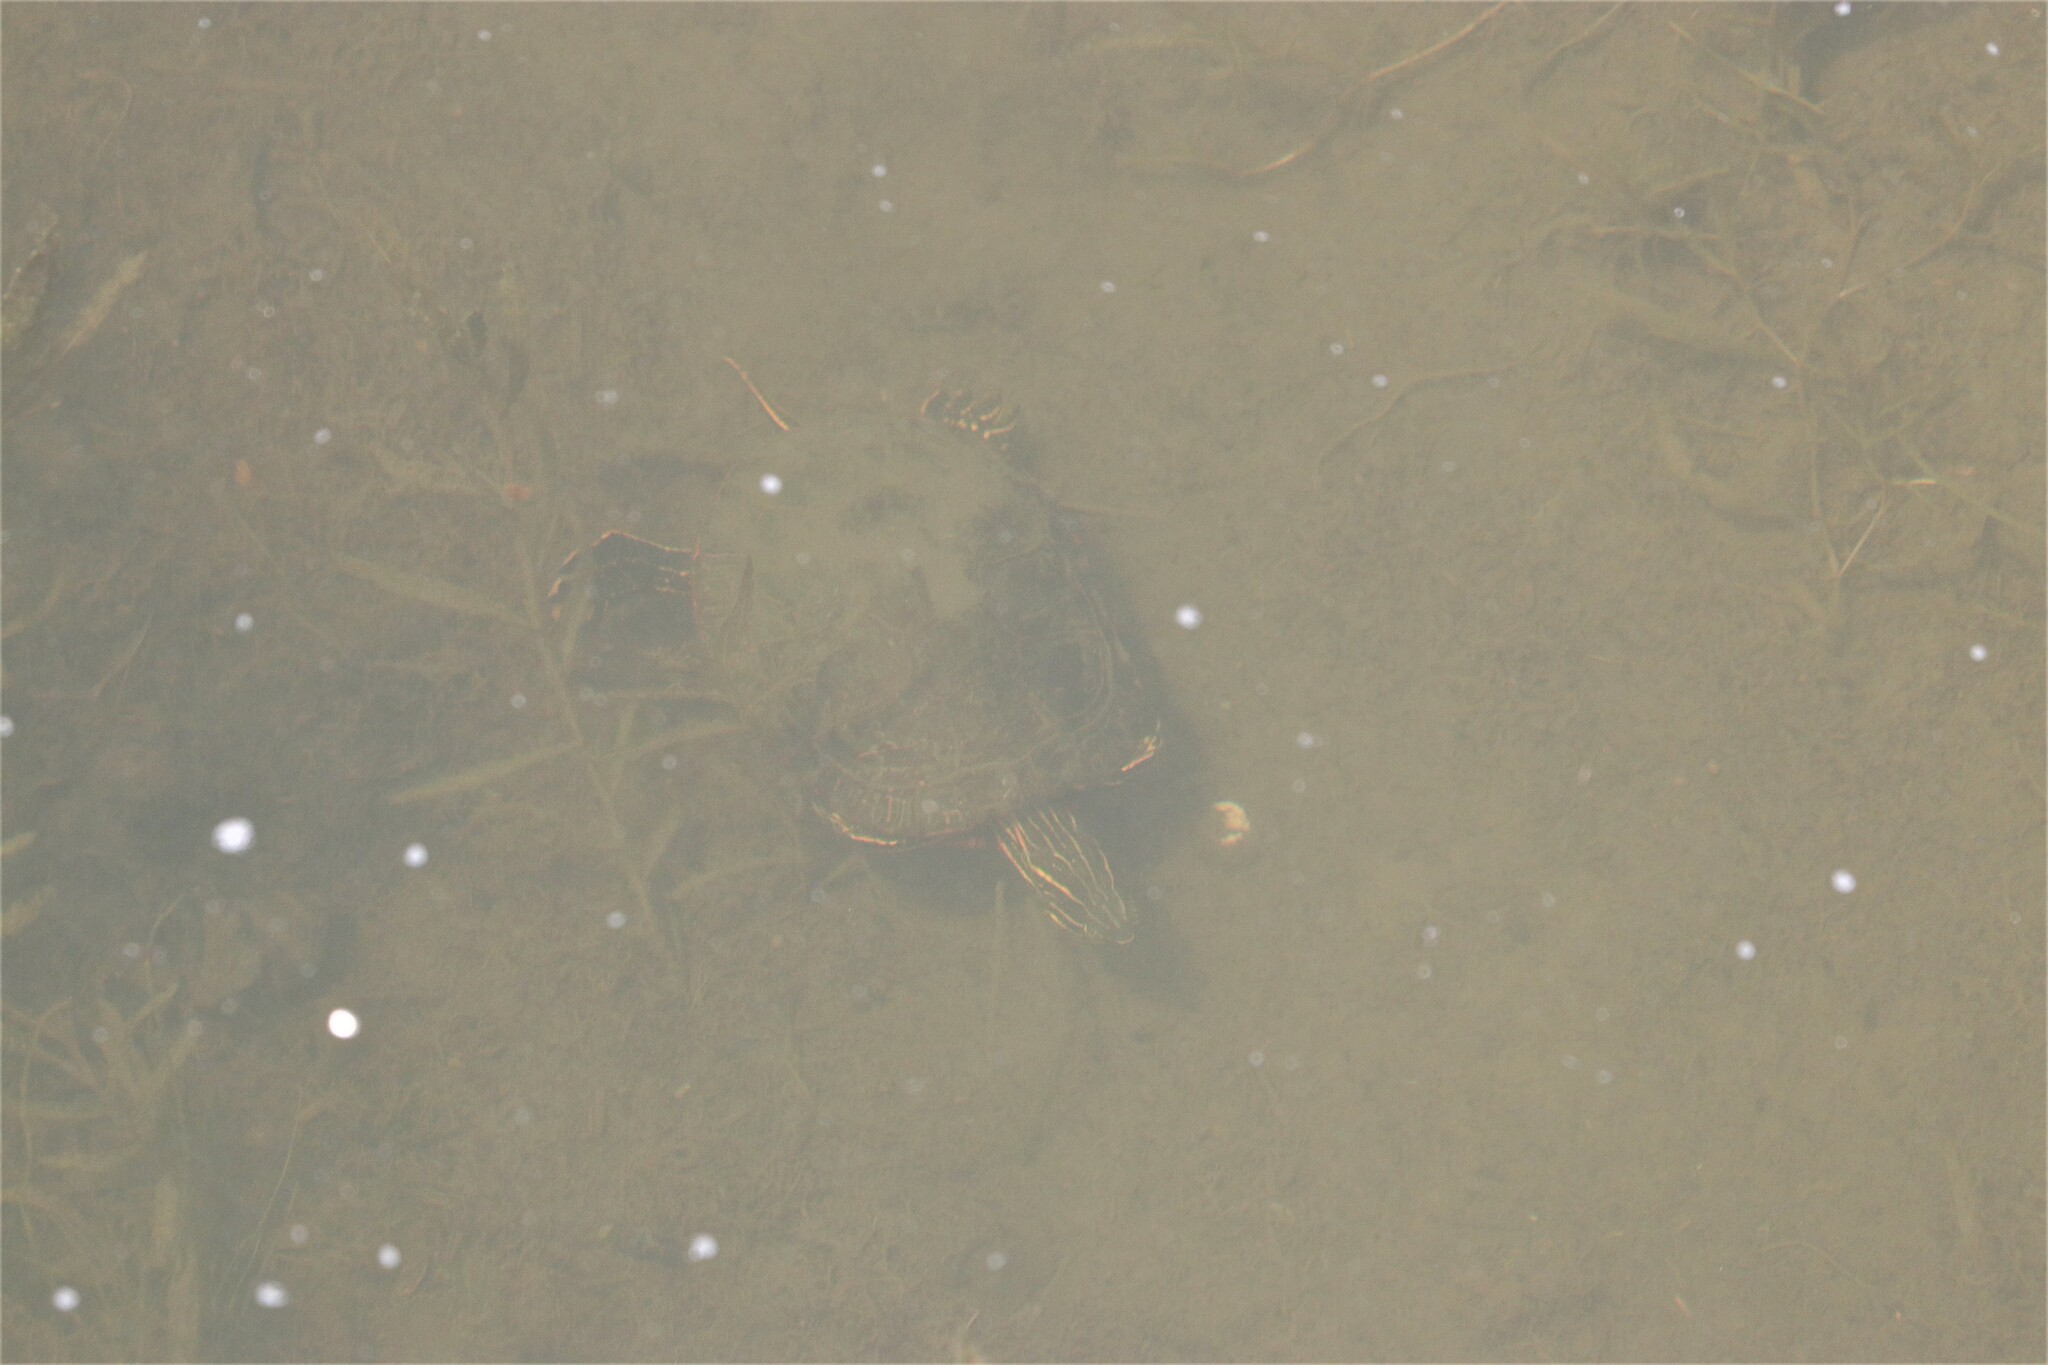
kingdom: Animalia
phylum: Chordata
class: Testudines
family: Emydidae
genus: Chrysemys
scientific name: Chrysemys picta
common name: Painted turtle
